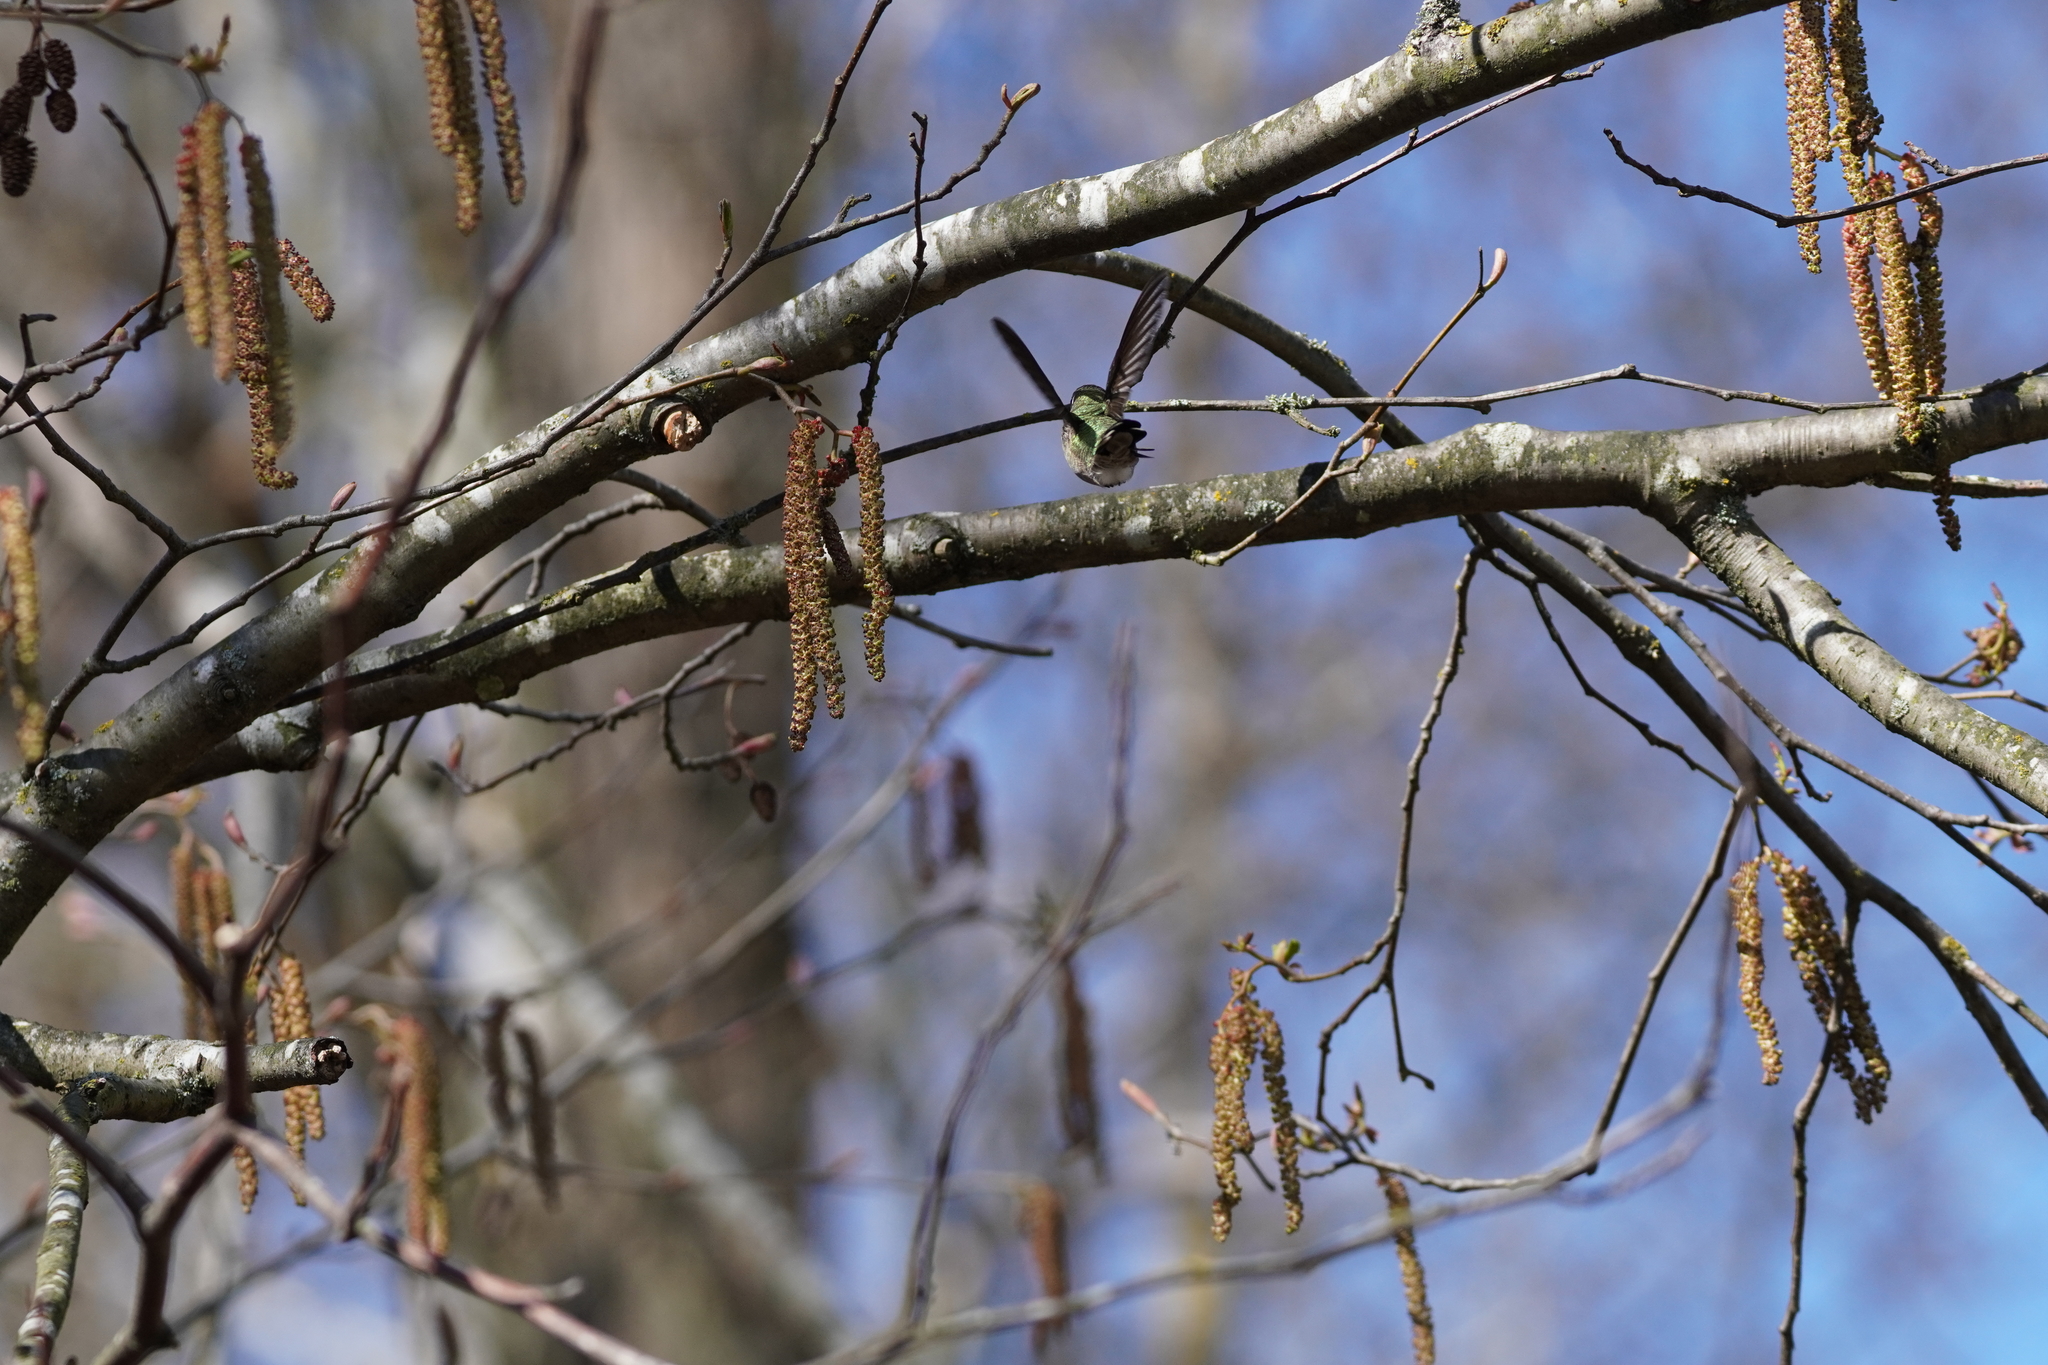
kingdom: Animalia
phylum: Chordata
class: Aves
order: Apodiformes
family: Trochilidae
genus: Calypte
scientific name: Calypte anna
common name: Anna's hummingbird
